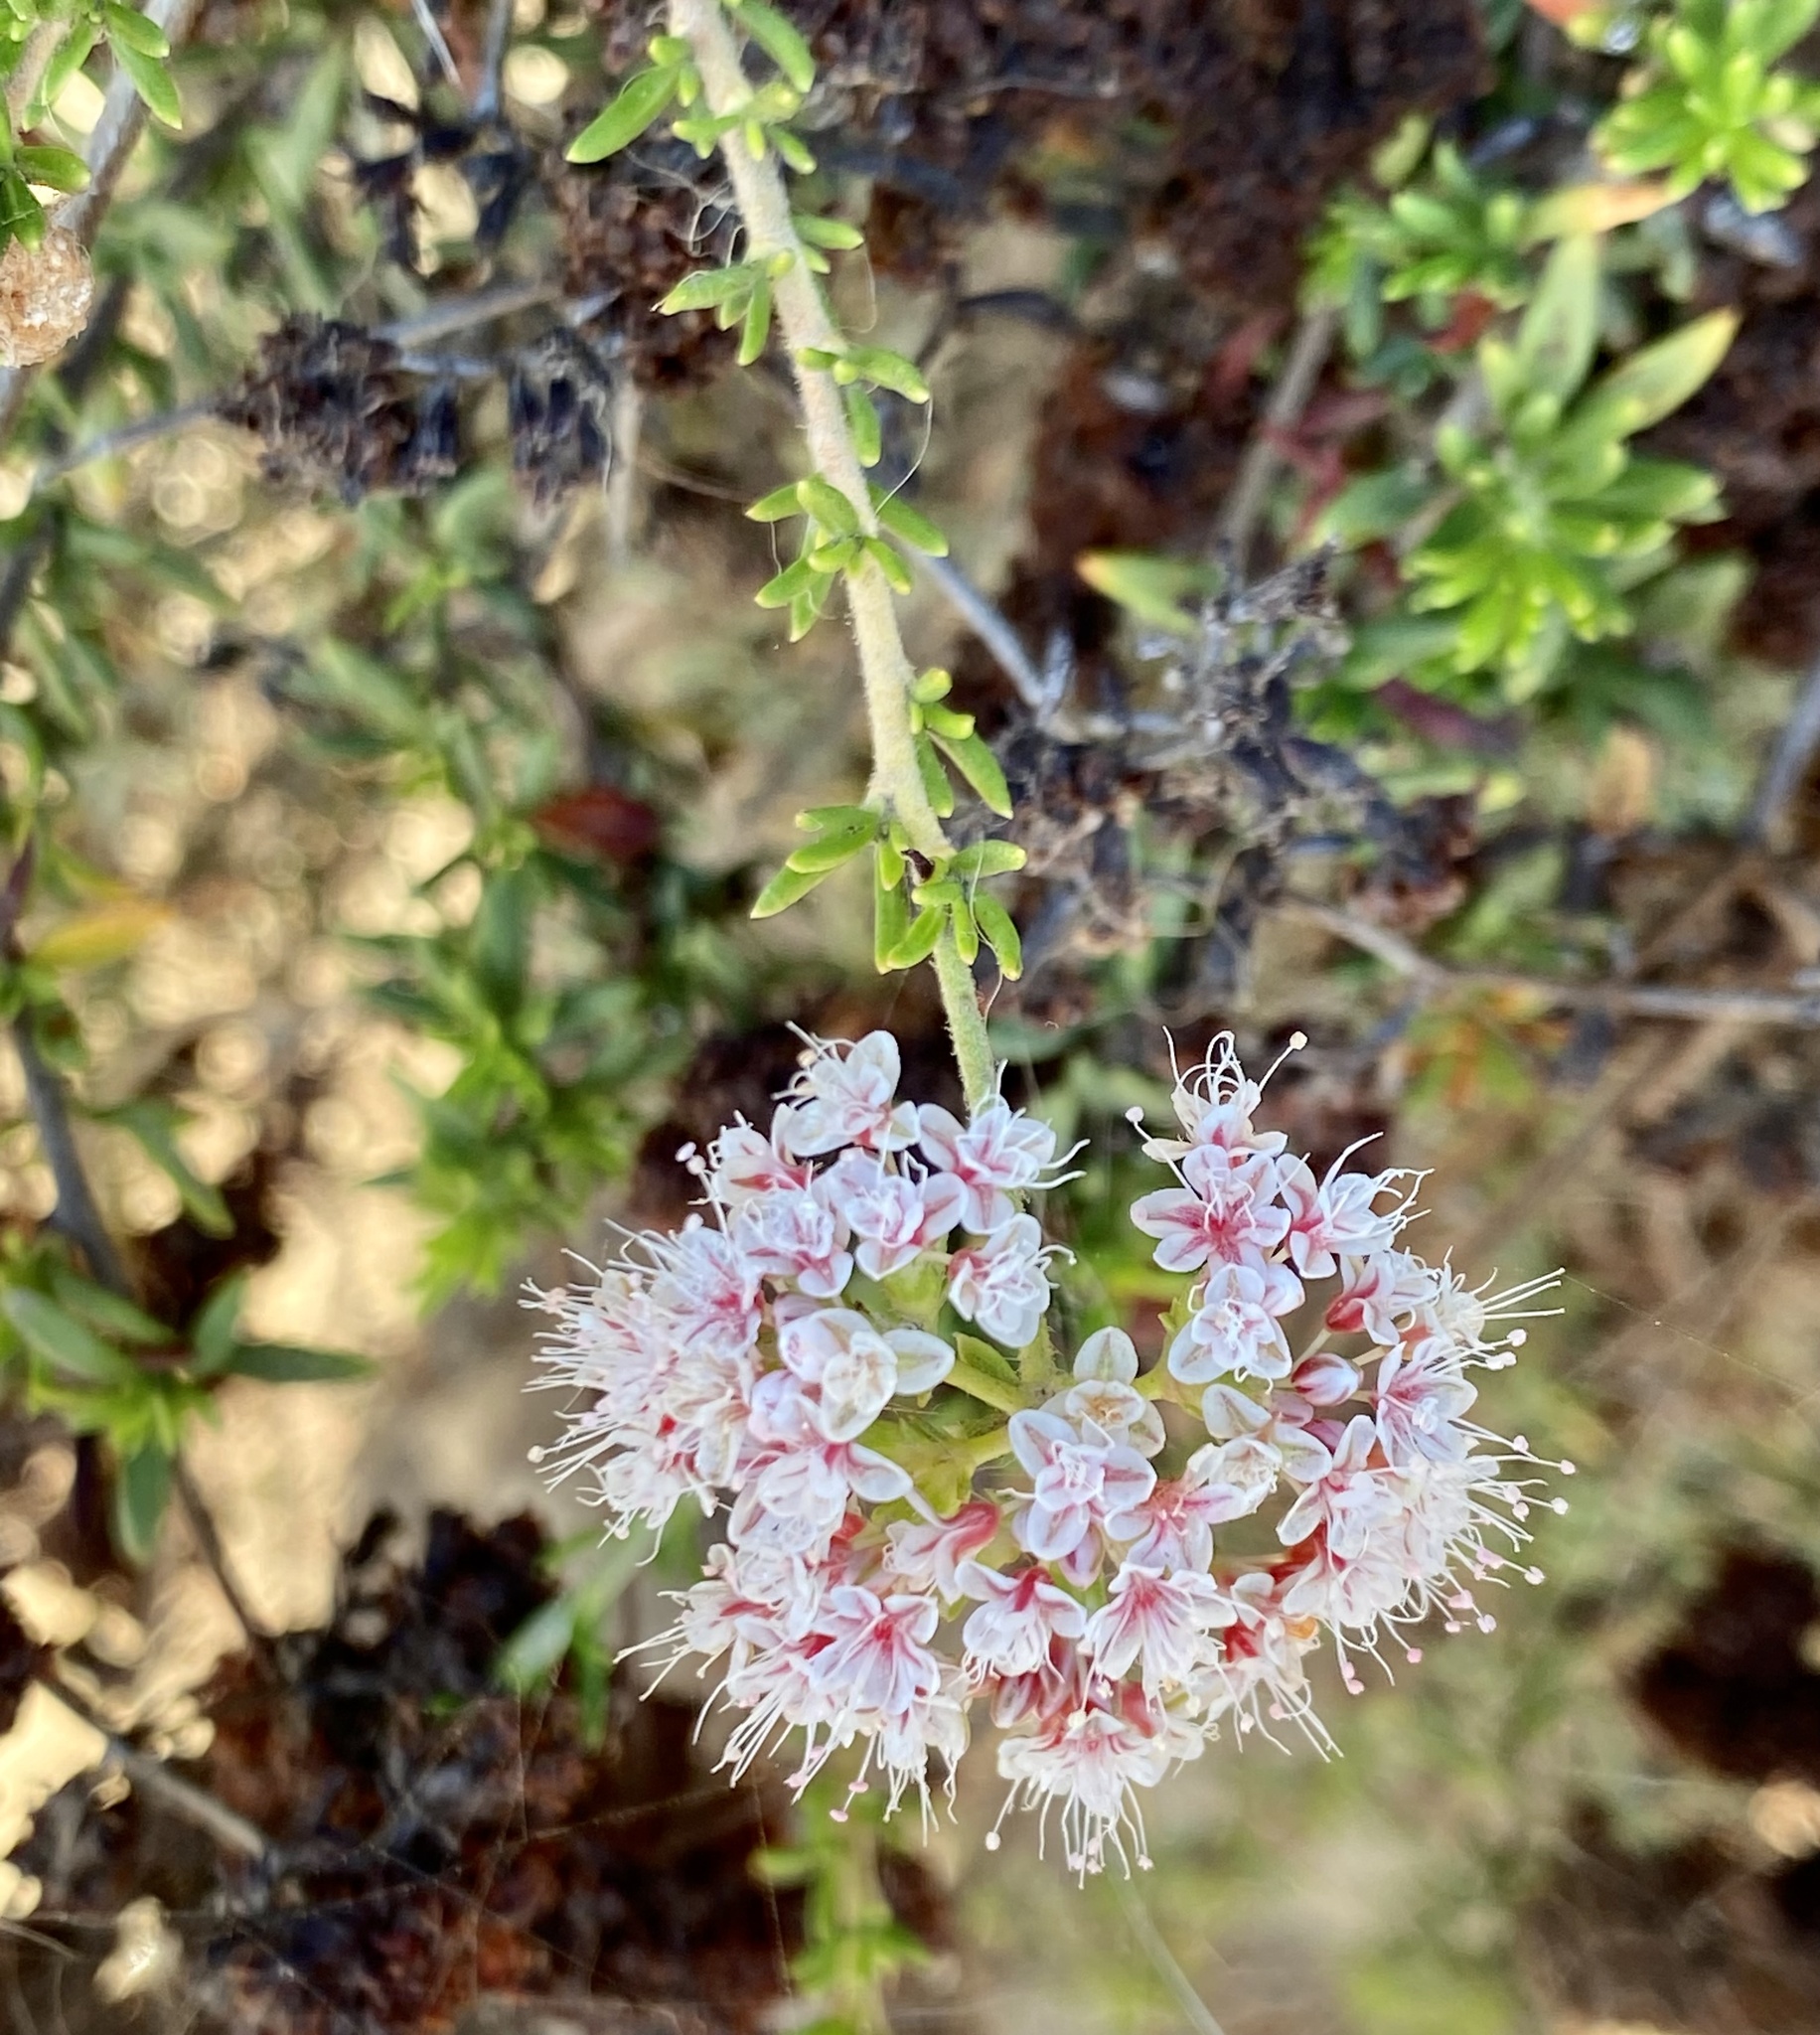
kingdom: Plantae
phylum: Tracheophyta
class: Magnoliopsida
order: Caryophyllales
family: Polygonaceae
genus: Eriogonum
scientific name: Eriogonum fasciculatum
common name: California wild buckwheat
